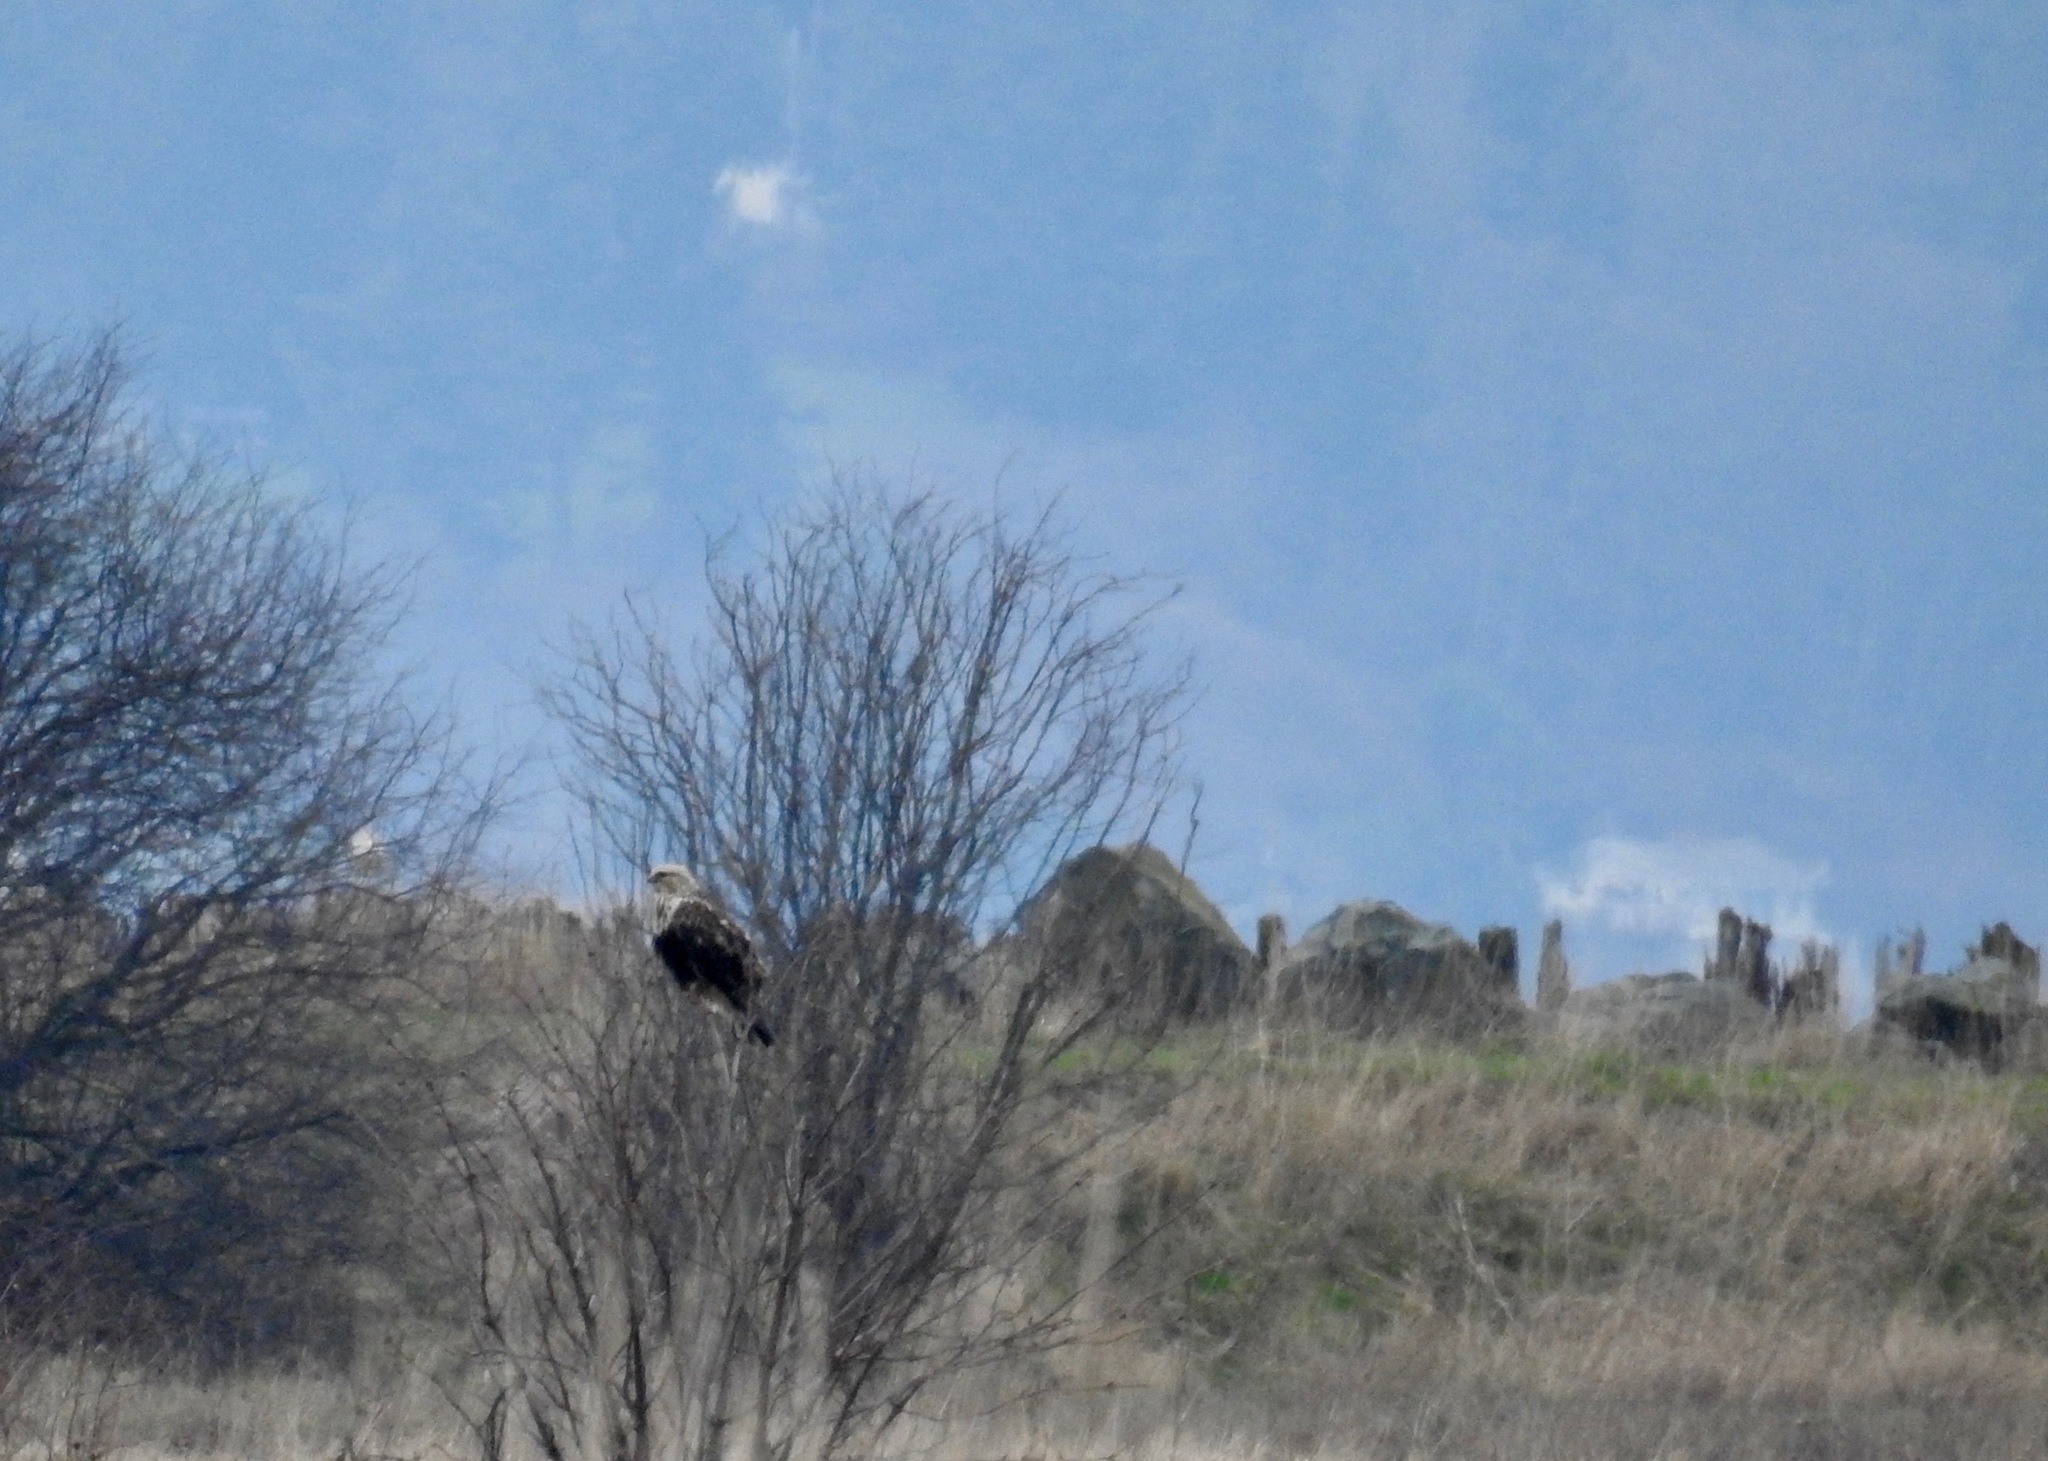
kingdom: Animalia
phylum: Chordata
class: Aves
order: Accipitriformes
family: Accipitridae
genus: Buteo
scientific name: Buteo lagopus
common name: Rough-legged buzzard
